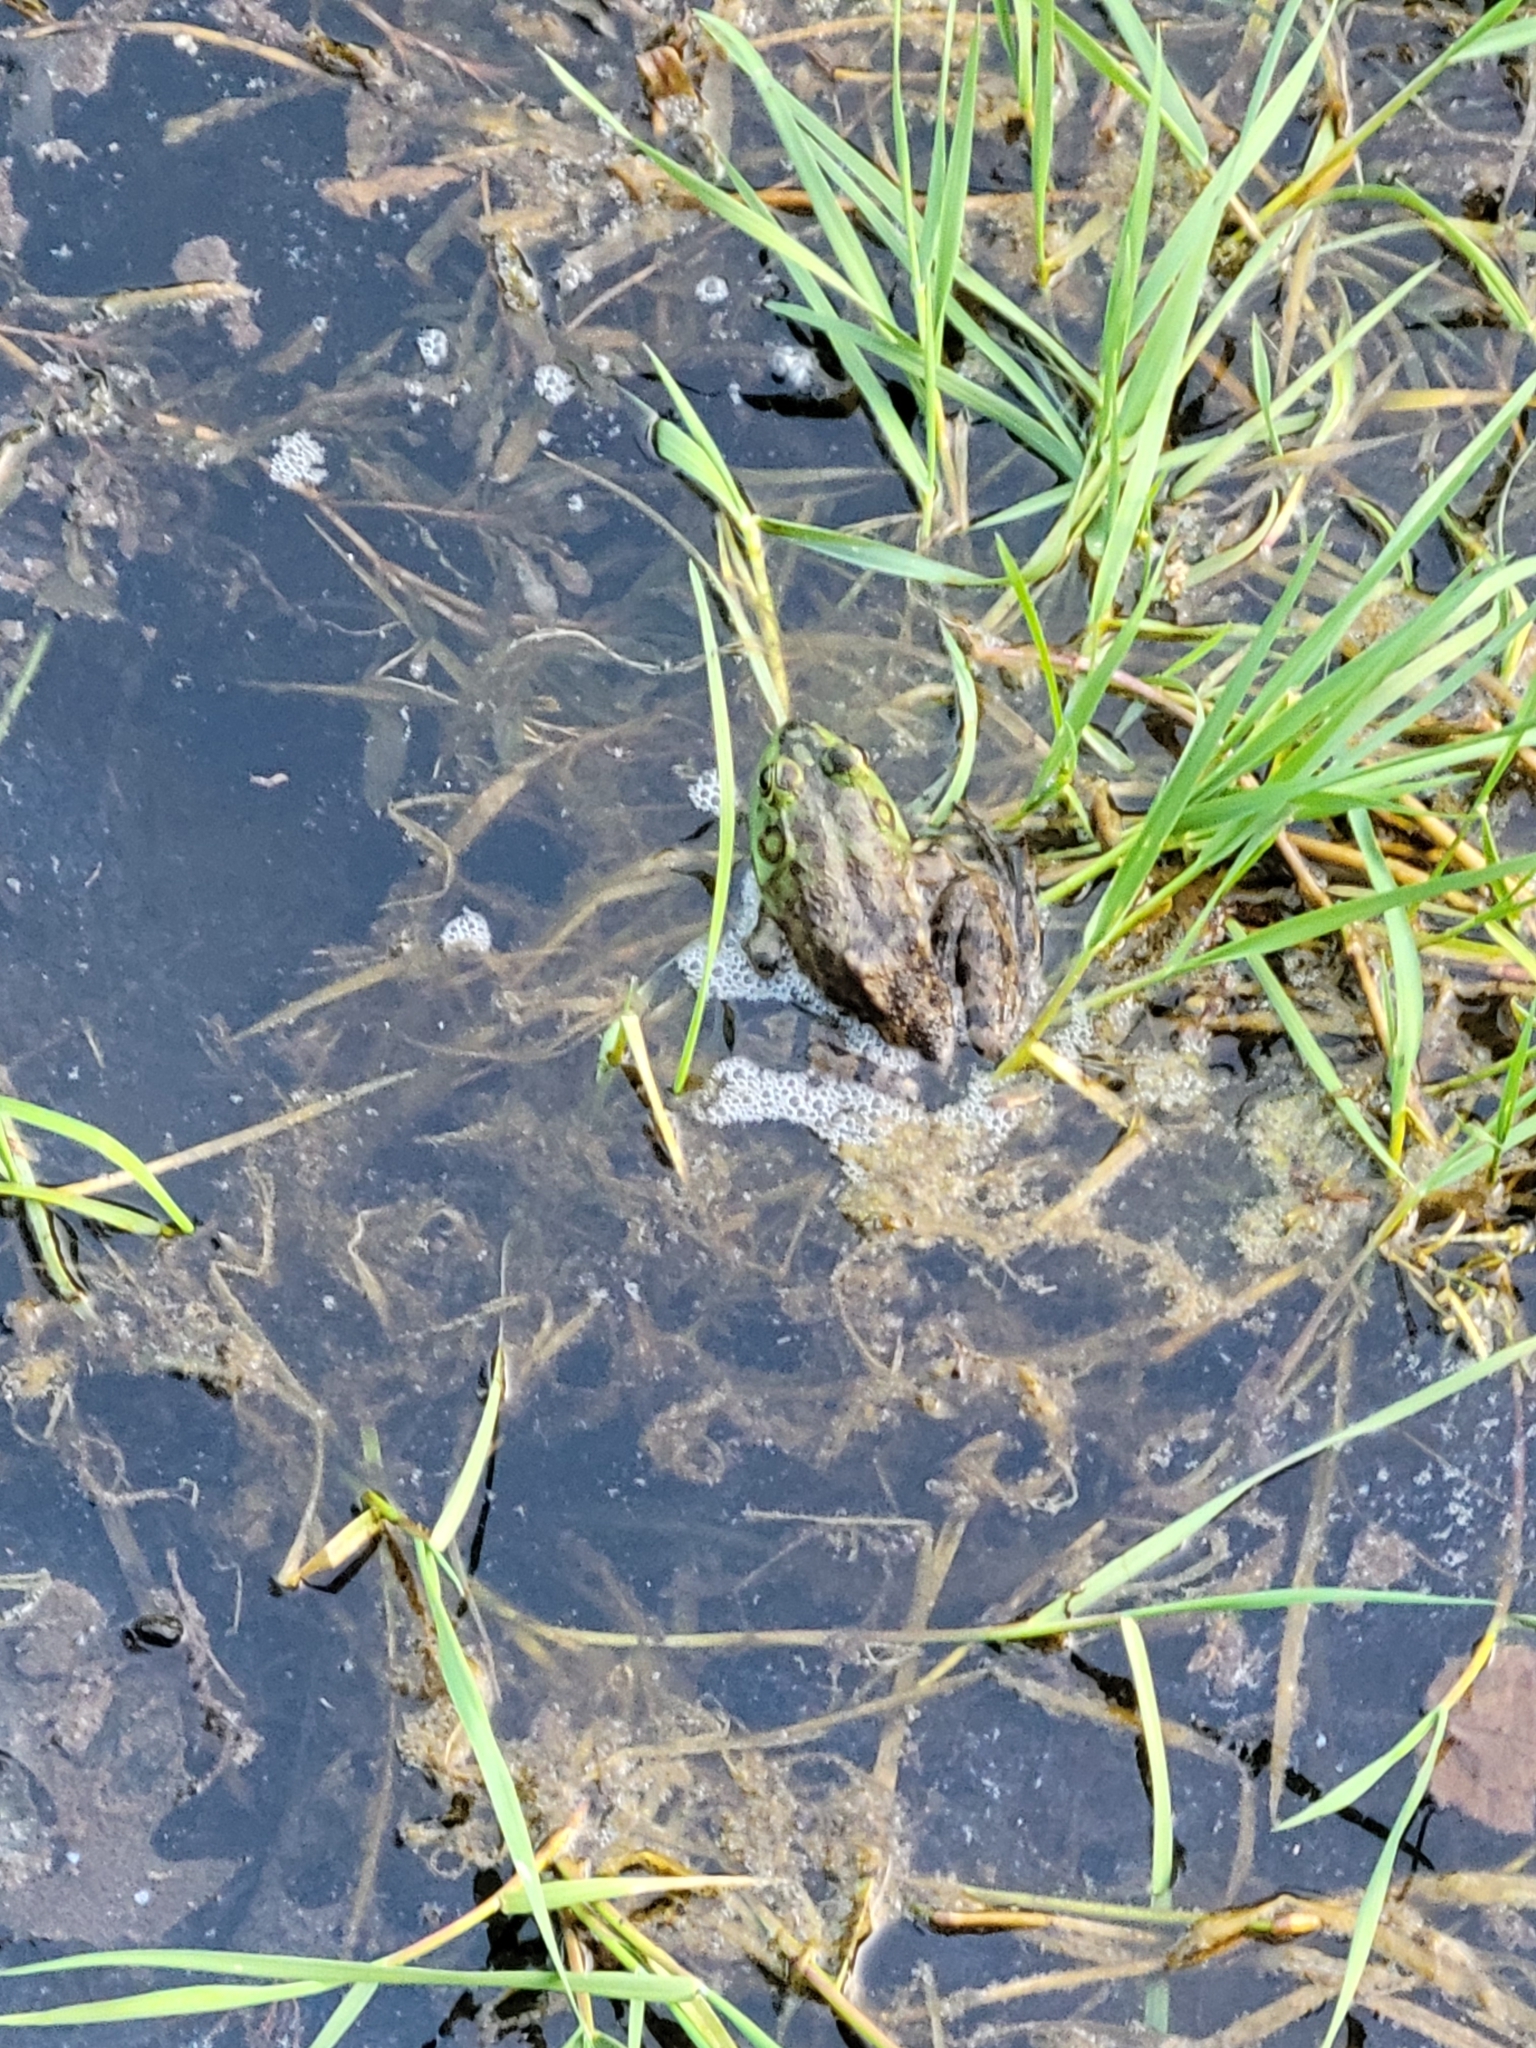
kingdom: Animalia
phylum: Chordata
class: Amphibia
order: Anura
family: Ranidae
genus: Lithobates
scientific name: Lithobates catesbeianus
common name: American bullfrog
